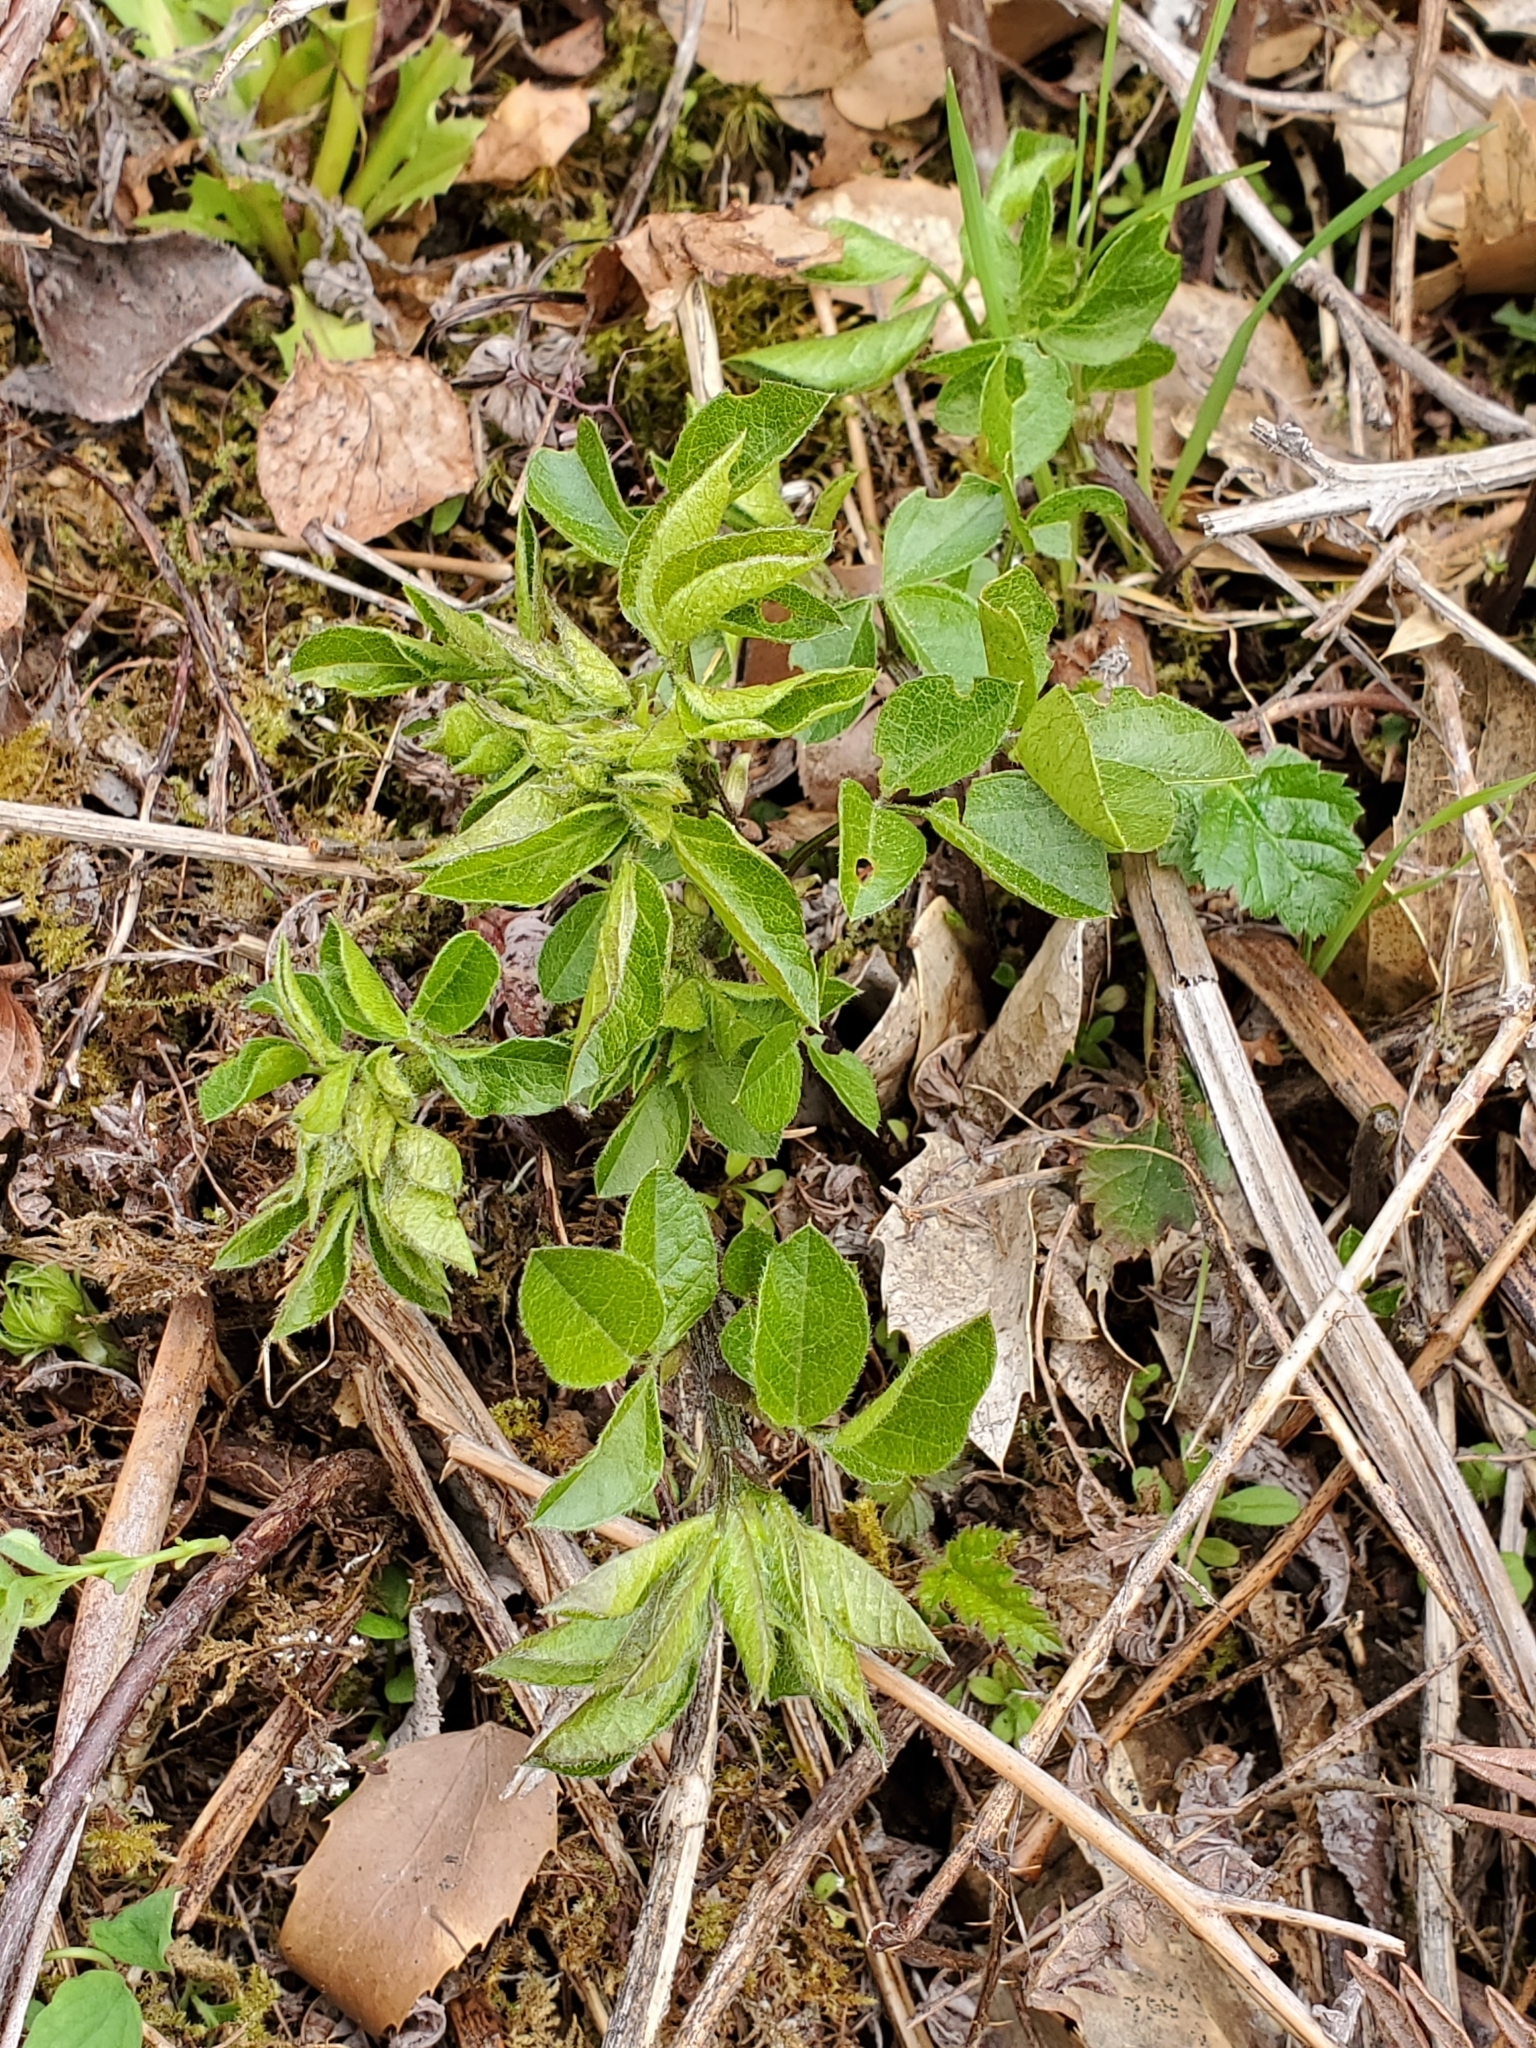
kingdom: Plantae
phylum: Tracheophyta
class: Magnoliopsida
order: Fabales
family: Fabaceae
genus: Rupertia
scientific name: Rupertia physodes
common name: California-tea
